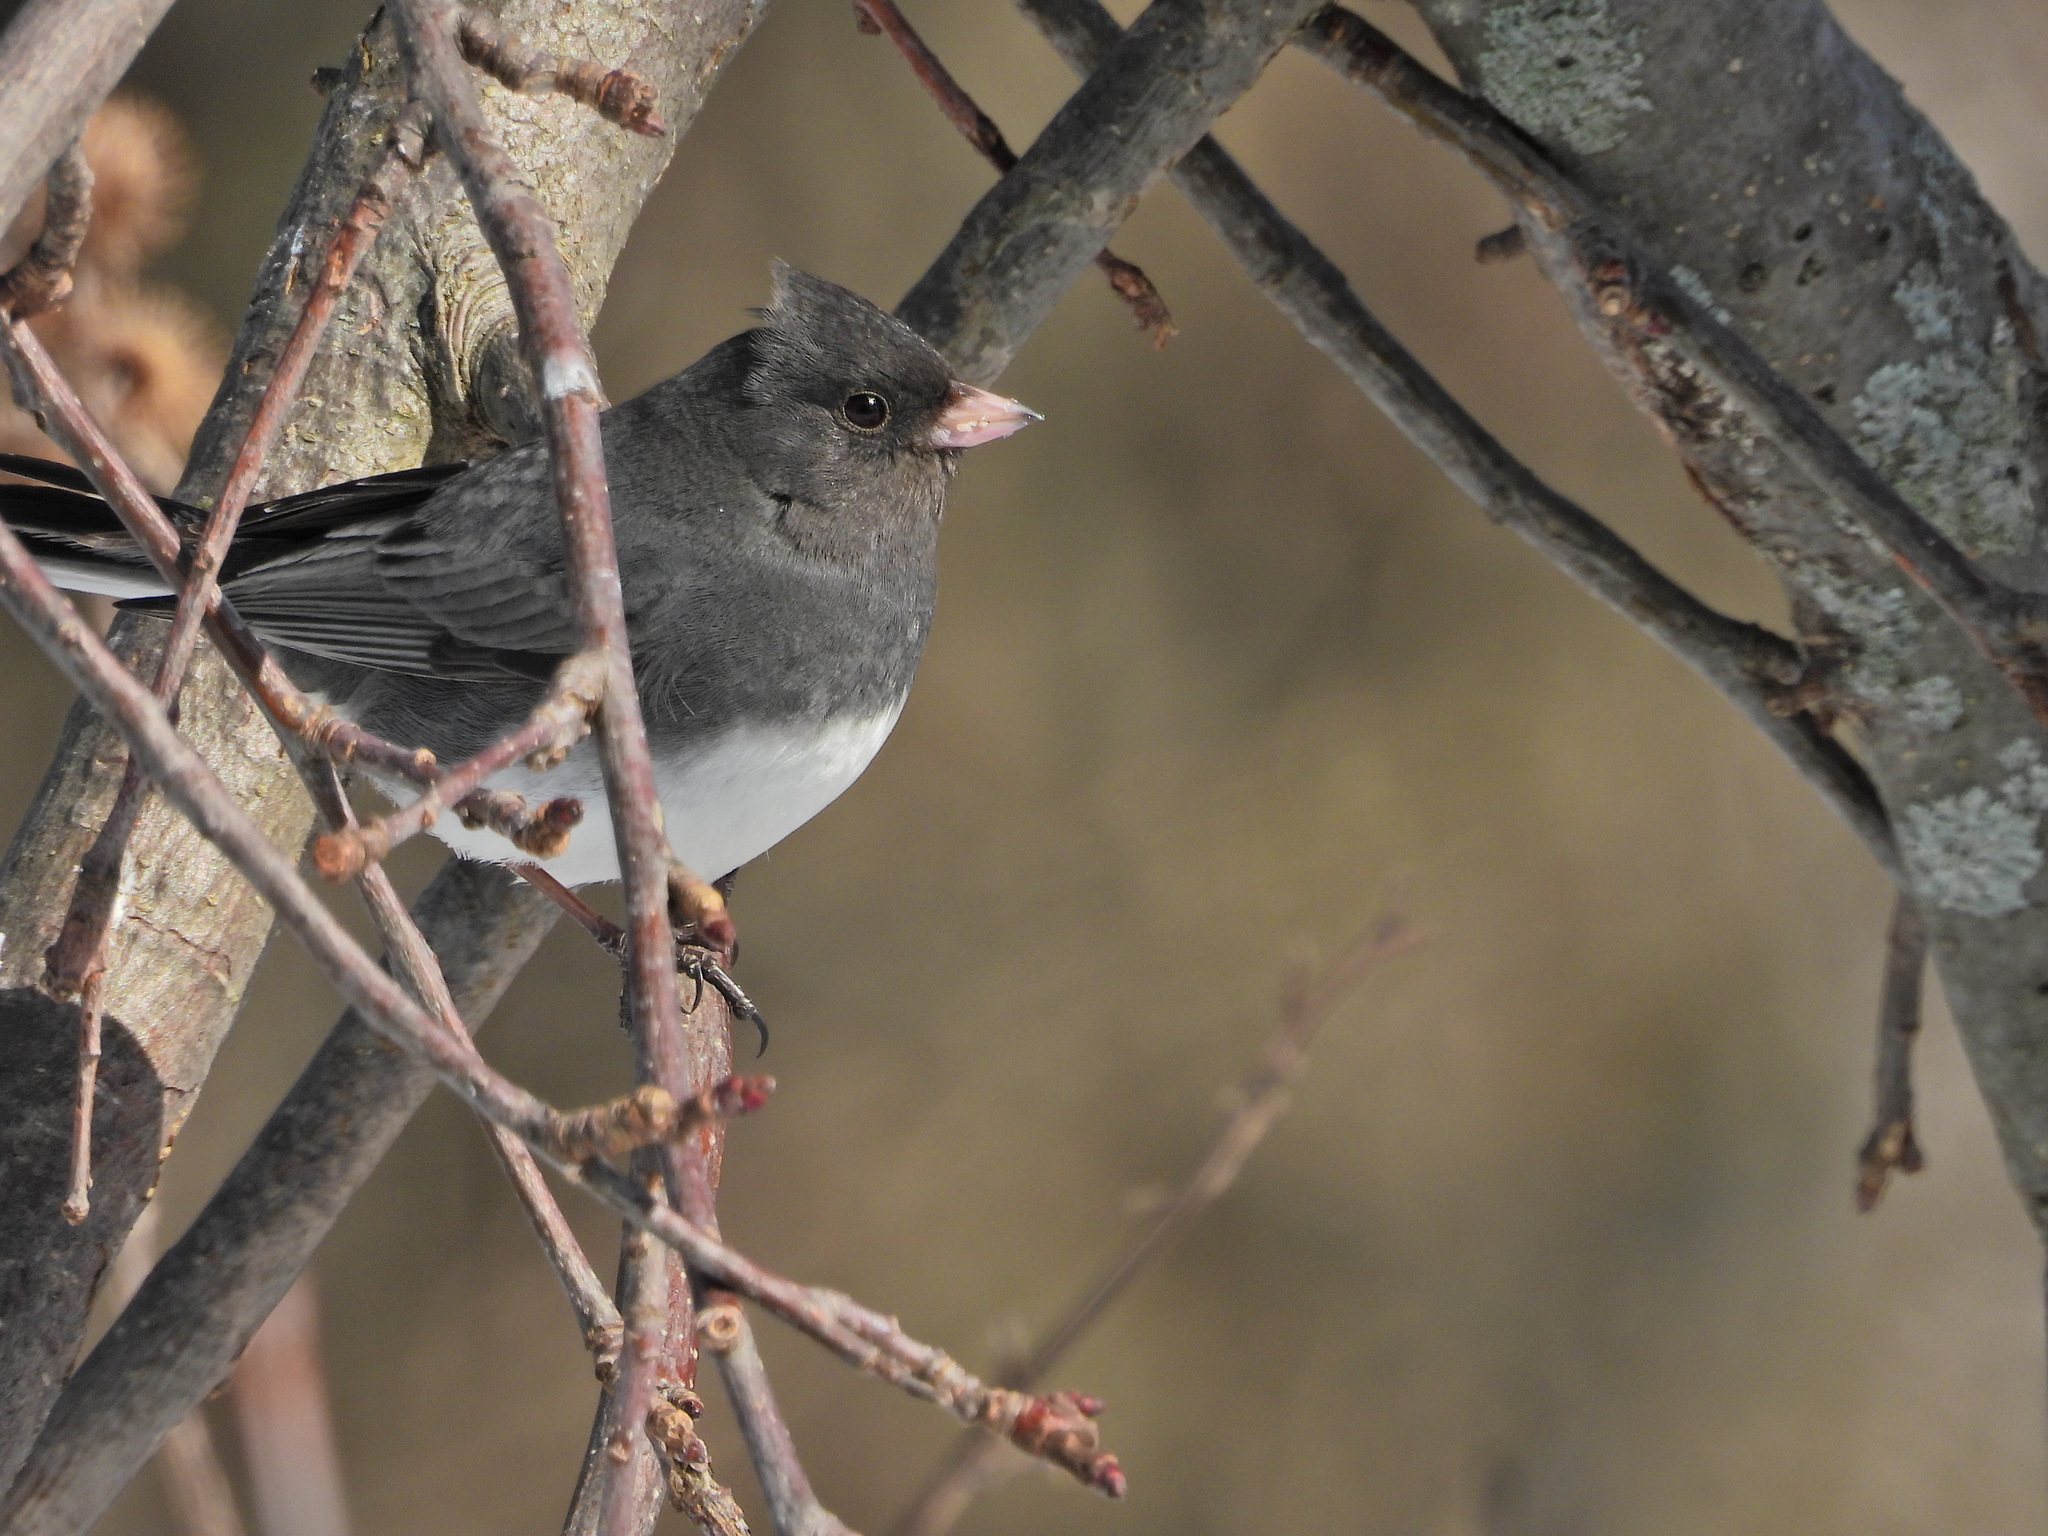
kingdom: Animalia
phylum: Chordata
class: Aves
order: Passeriformes
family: Passerellidae
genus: Junco
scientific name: Junco hyemalis
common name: Dark-eyed junco
